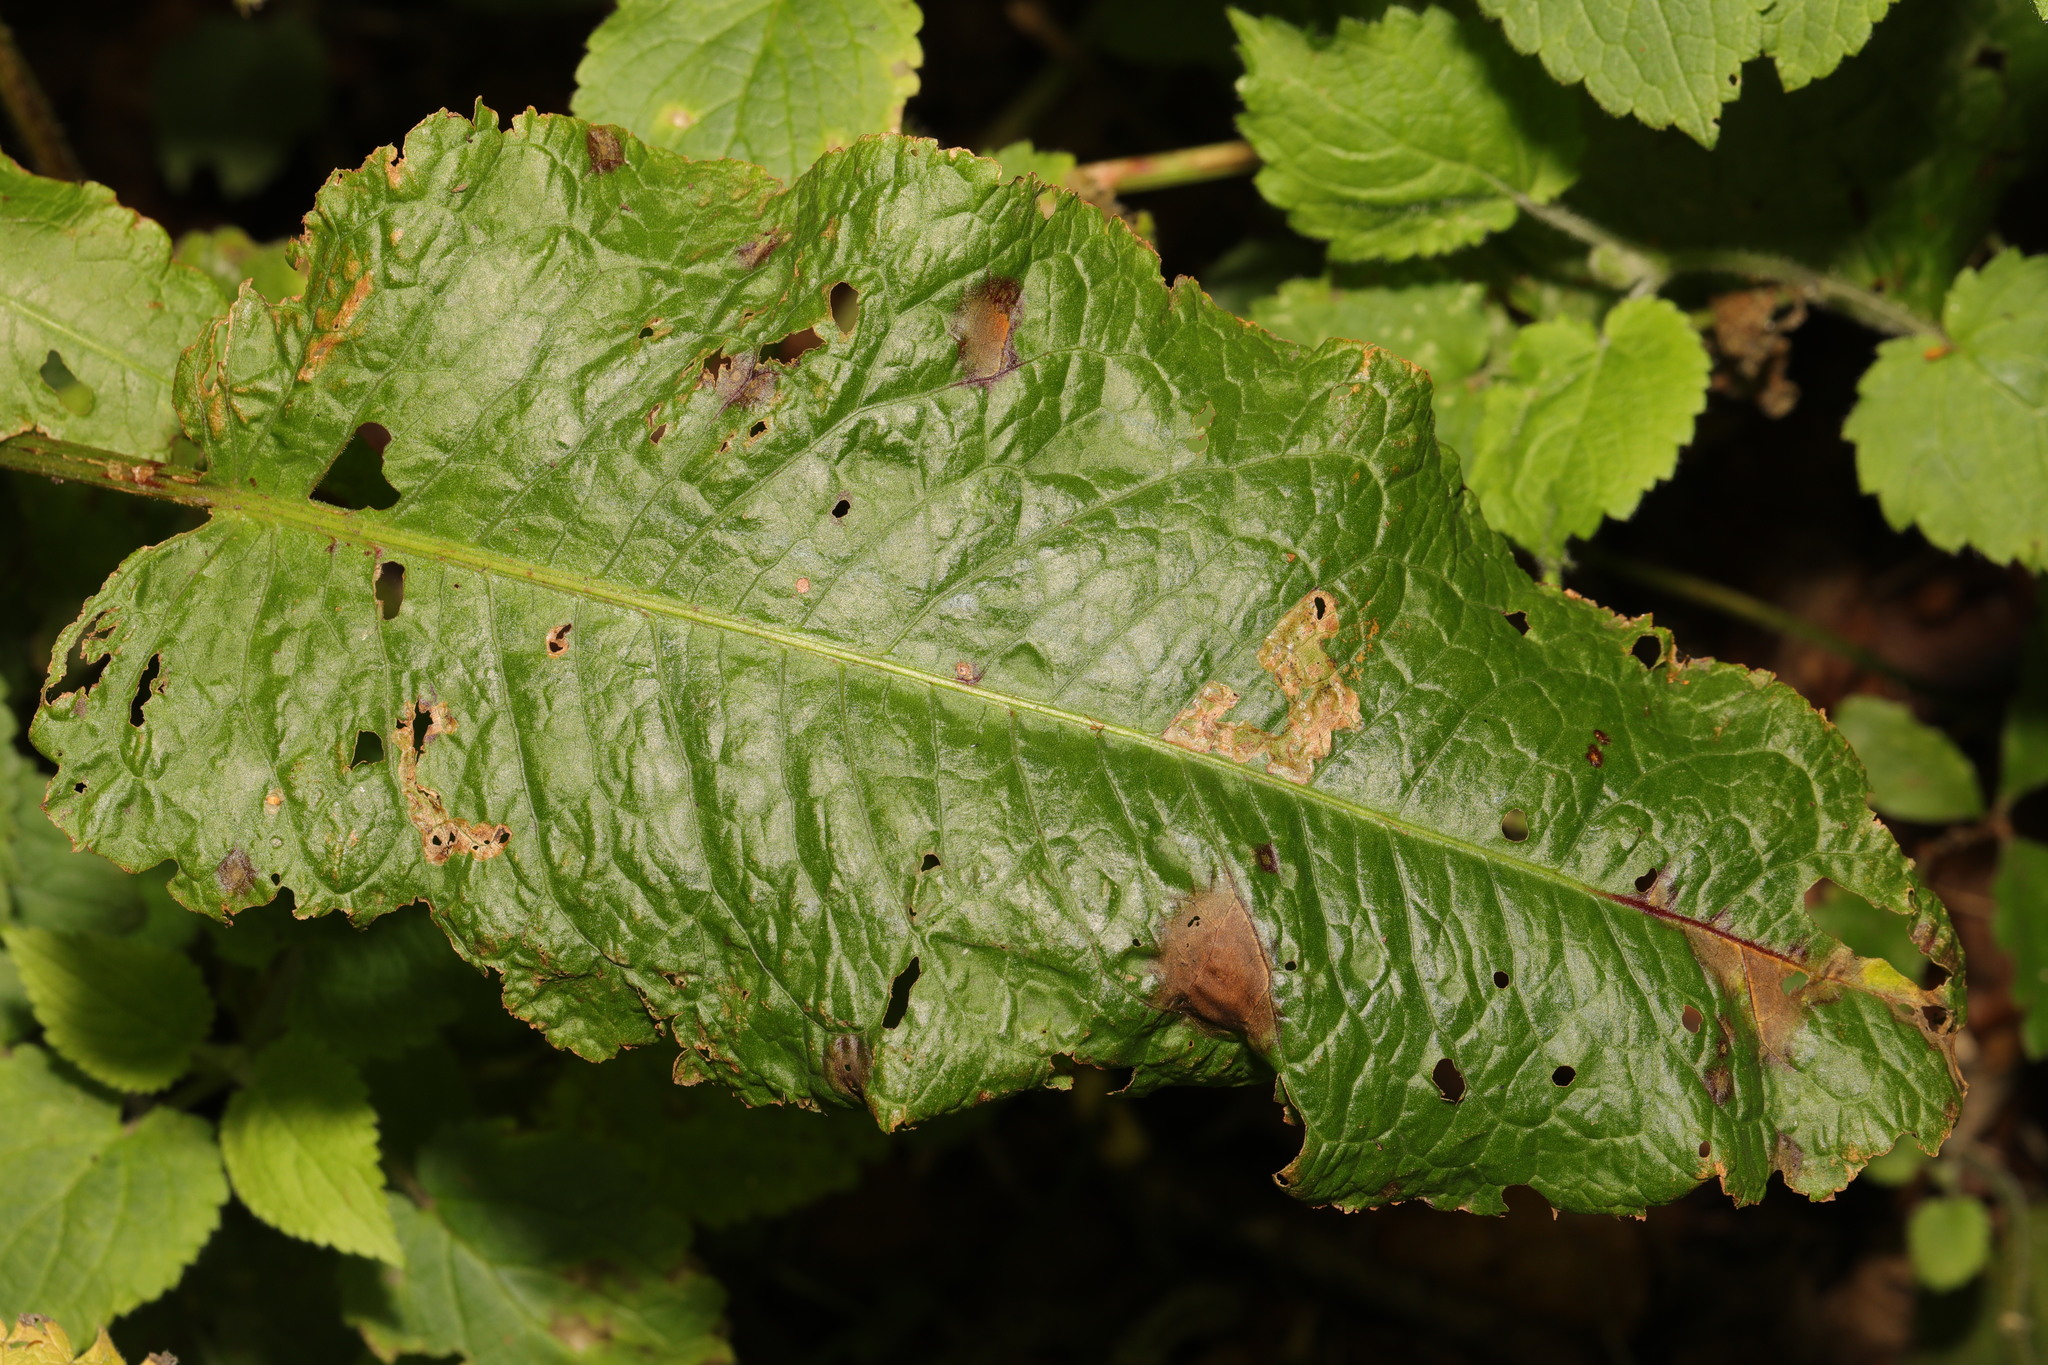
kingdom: Plantae
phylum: Tracheophyta
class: Magnoliopsida
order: Caryophyllales
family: Polygonaceae
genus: Rumex
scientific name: Rumex obtusifolius
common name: Bitter dock
